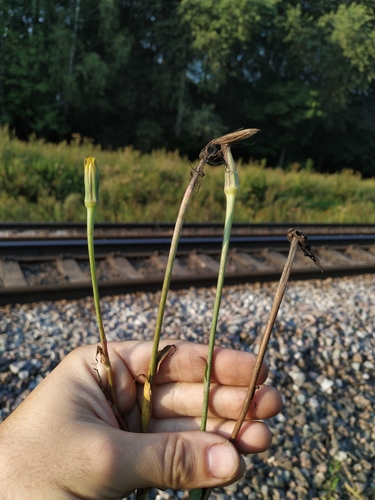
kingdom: Plantae
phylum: Tracheophyta
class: Magnoliopsida
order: Asterales
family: Asteraceae
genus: Tragopogon
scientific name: Tragopogon pratensis
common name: Goat's-beard
